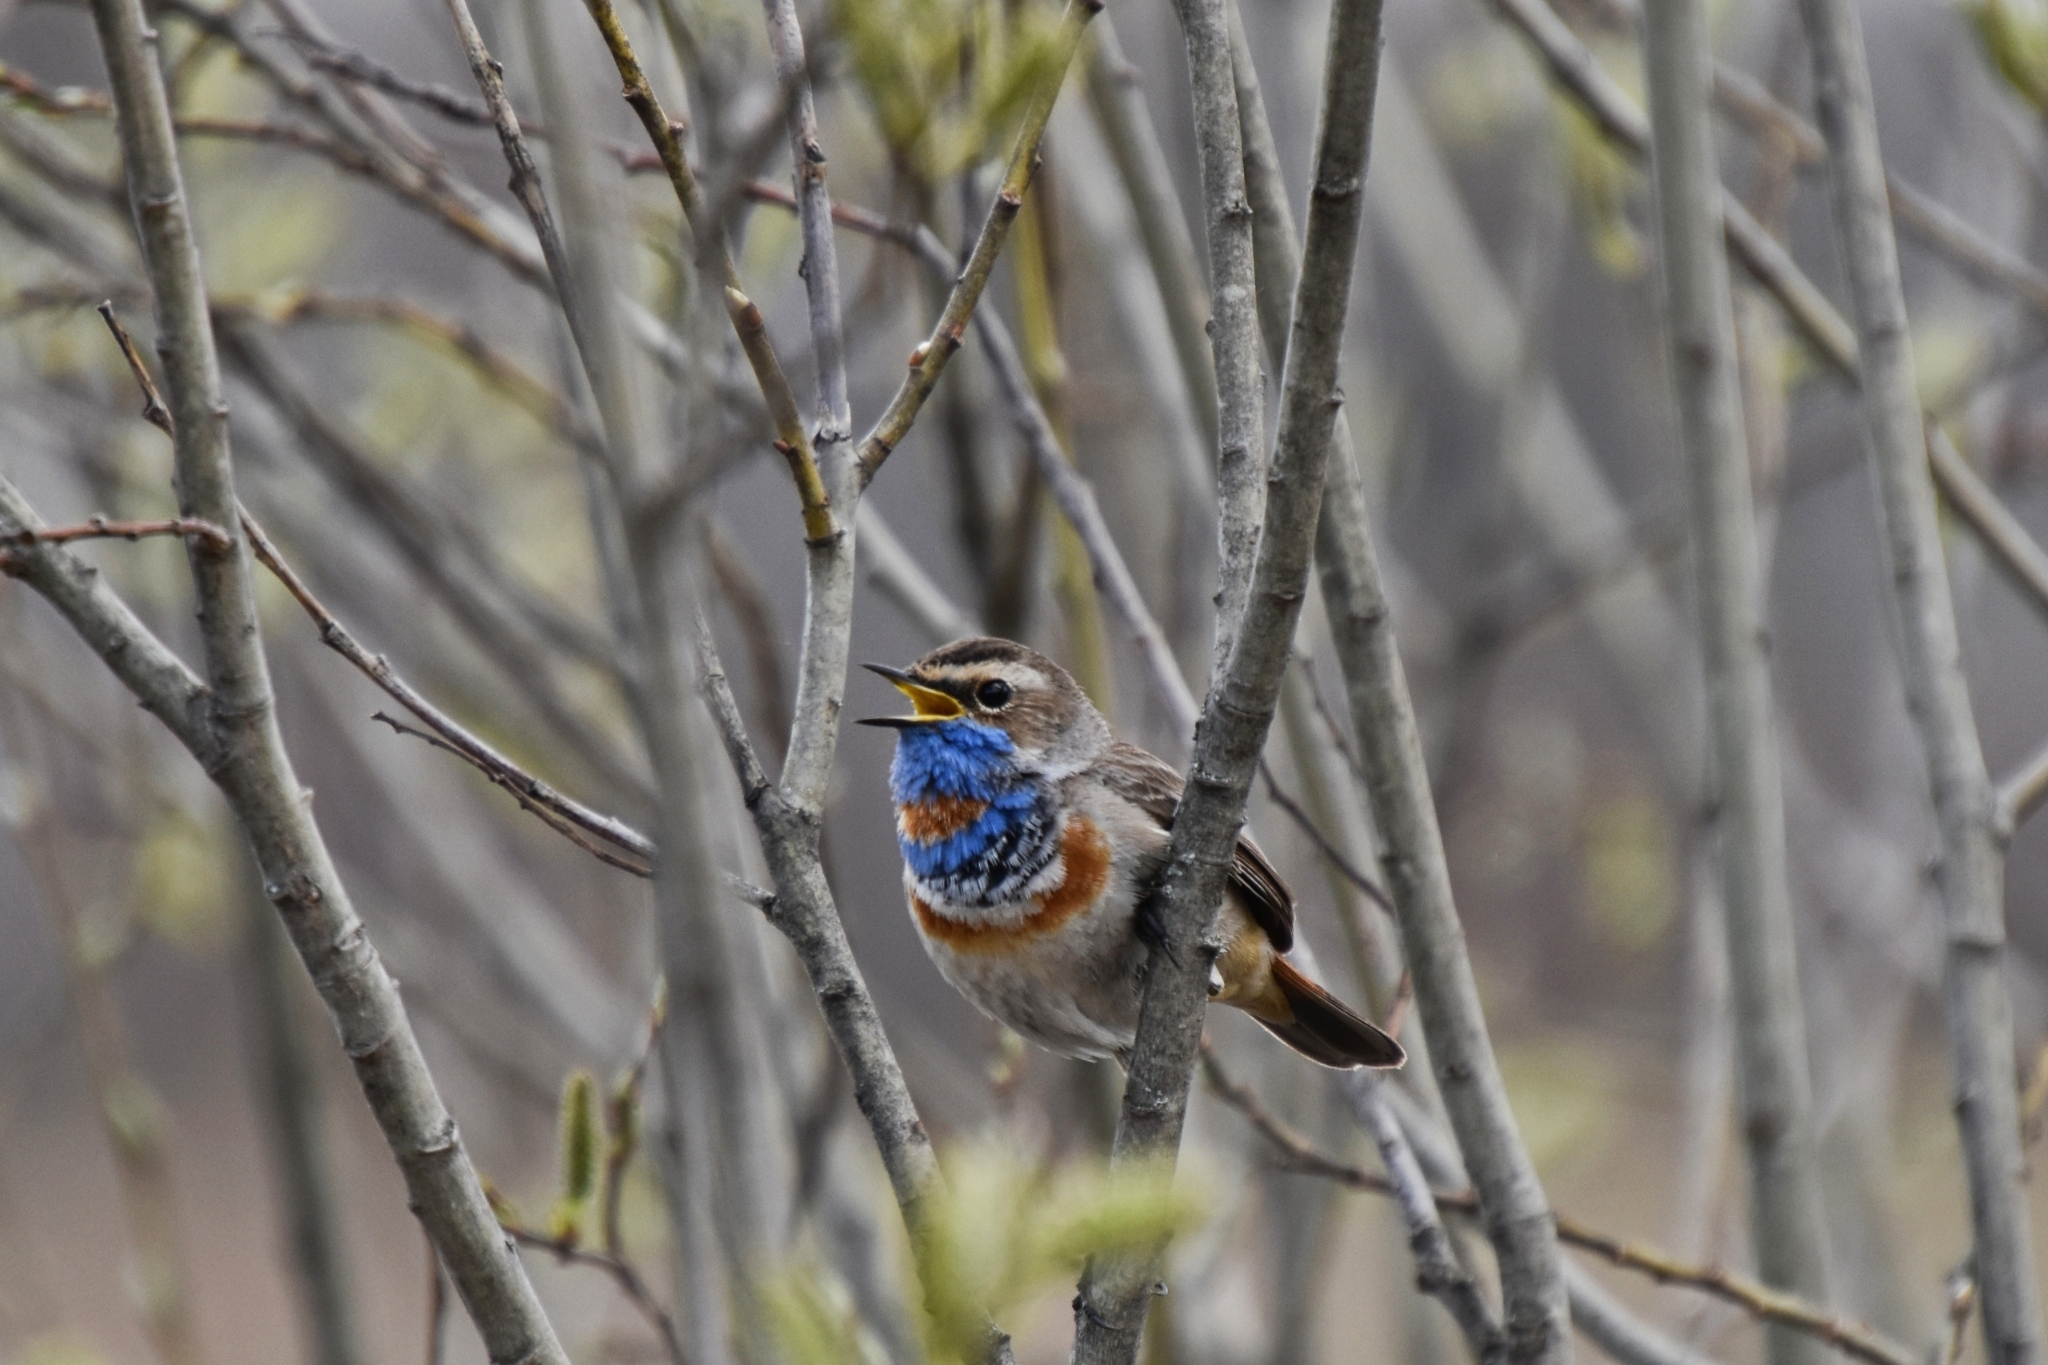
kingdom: Animalia
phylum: Chordata
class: Aves
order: Passeriformes
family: Muscicapidae
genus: Luscinia
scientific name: Luscinia svecica
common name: Bluethroat
